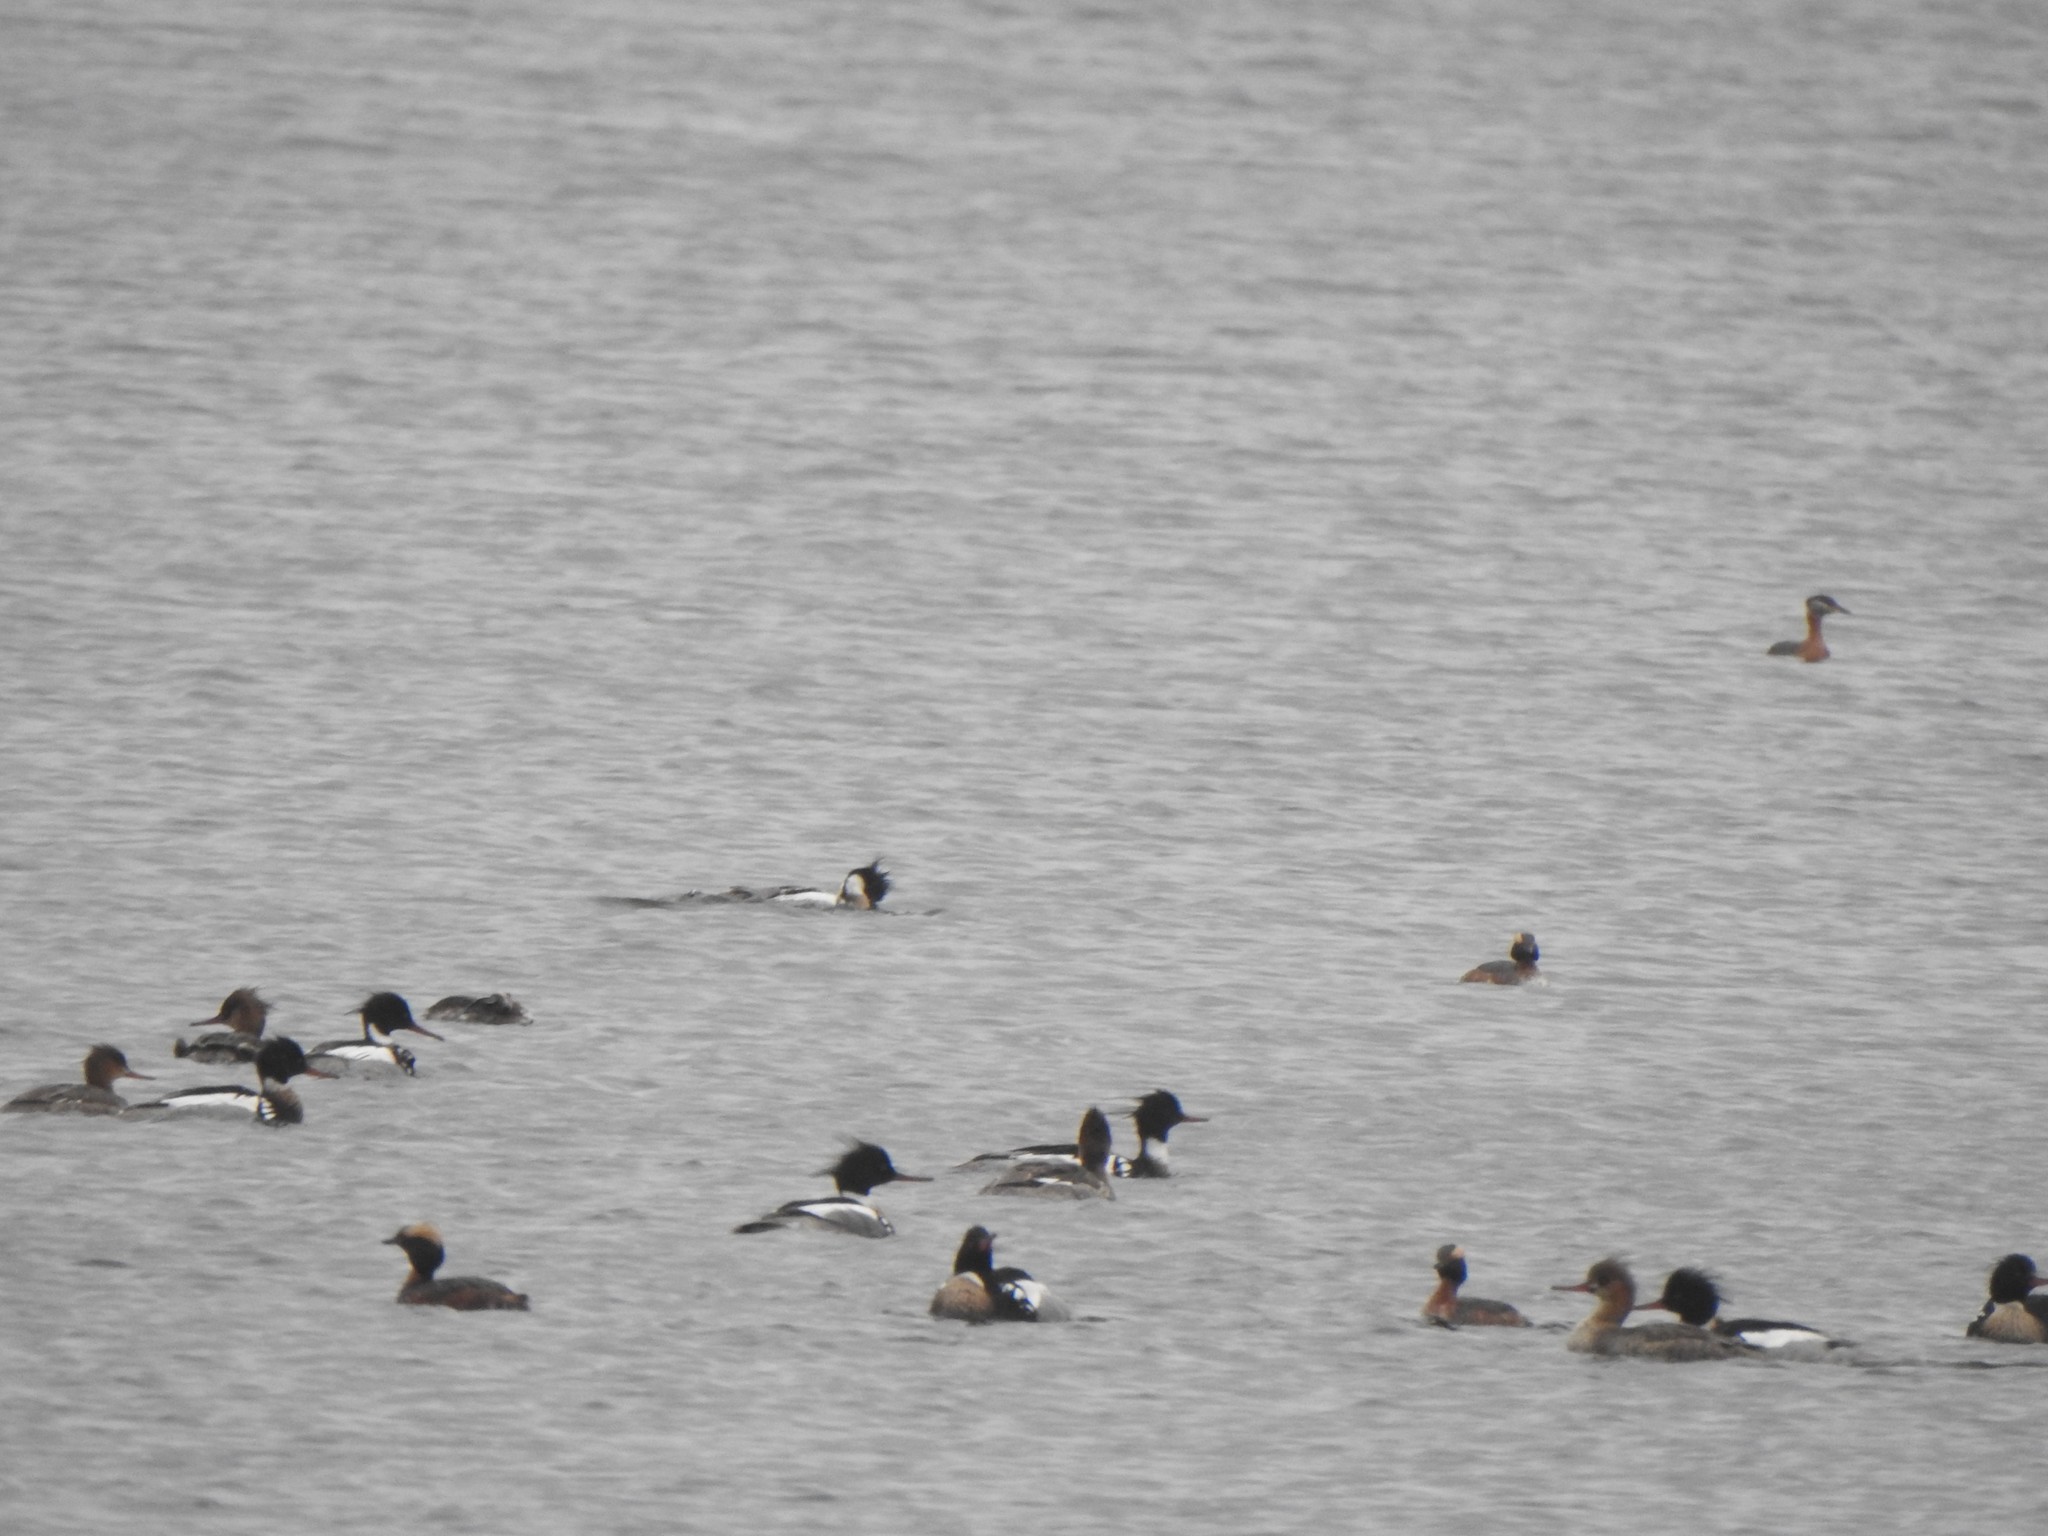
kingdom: Animalia
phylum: Chordata
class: Aves
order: Podicipediformes
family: Podicipedidae
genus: Podiceps
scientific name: Podiceps grisegena
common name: Red-necked grebe
